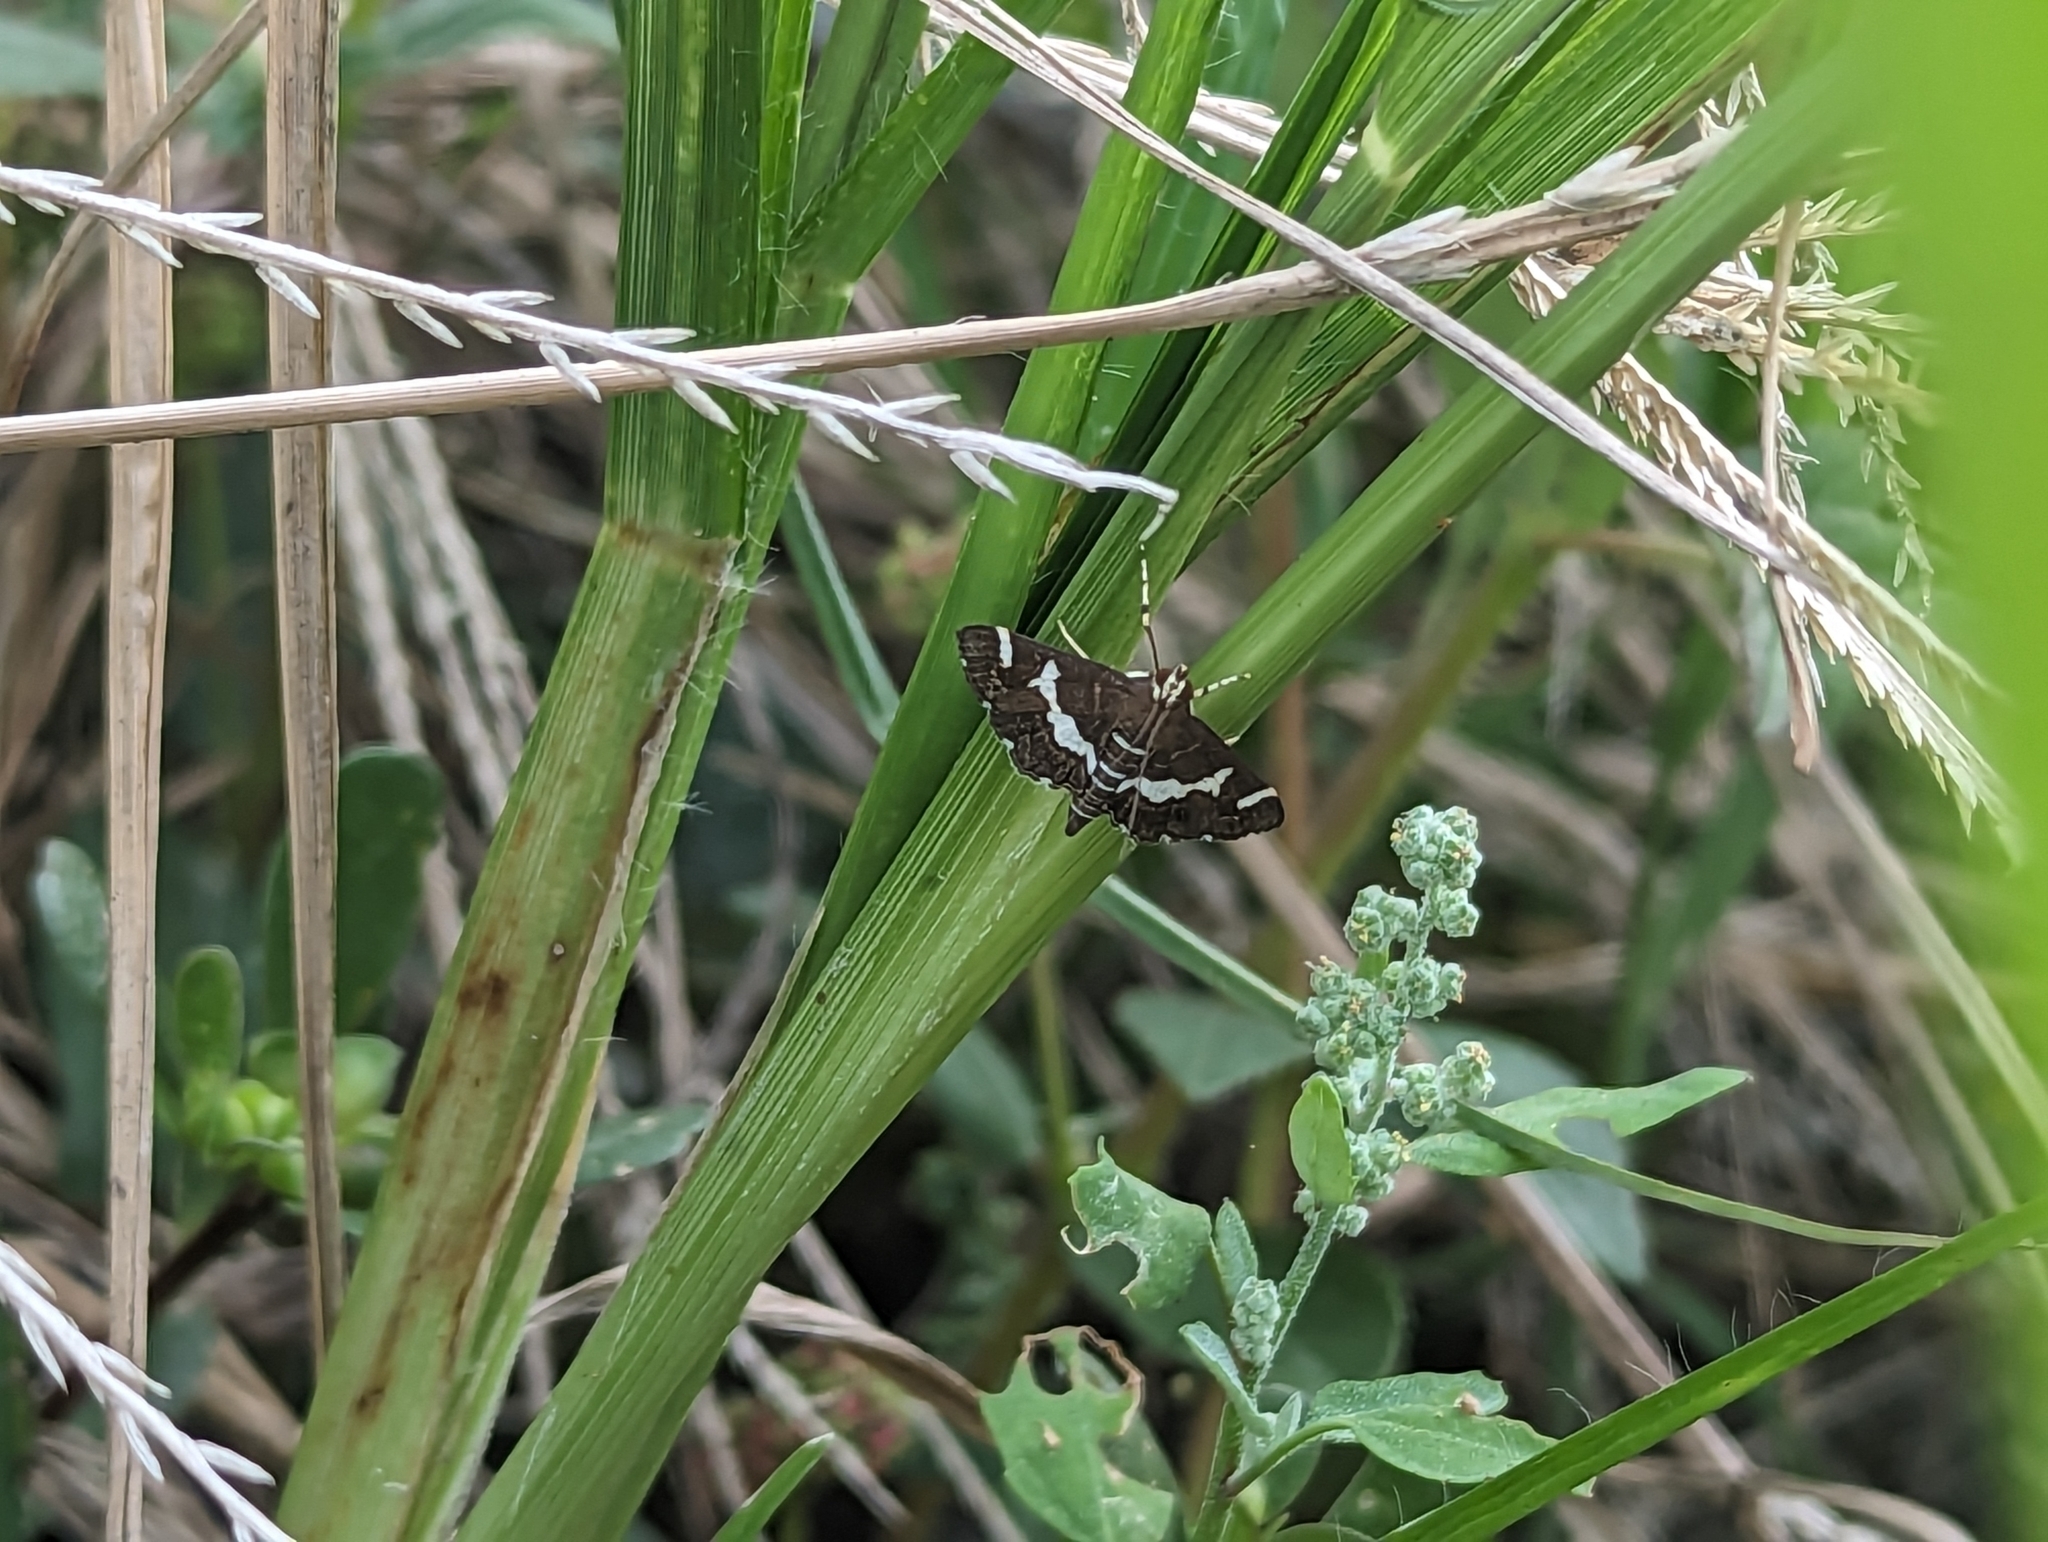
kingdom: Animalia
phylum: Arthropoda
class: Insecta
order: Lepidoptera
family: Crambidae
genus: Spoladea
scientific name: Spoladea recurvalis
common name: Beet webworm moth
